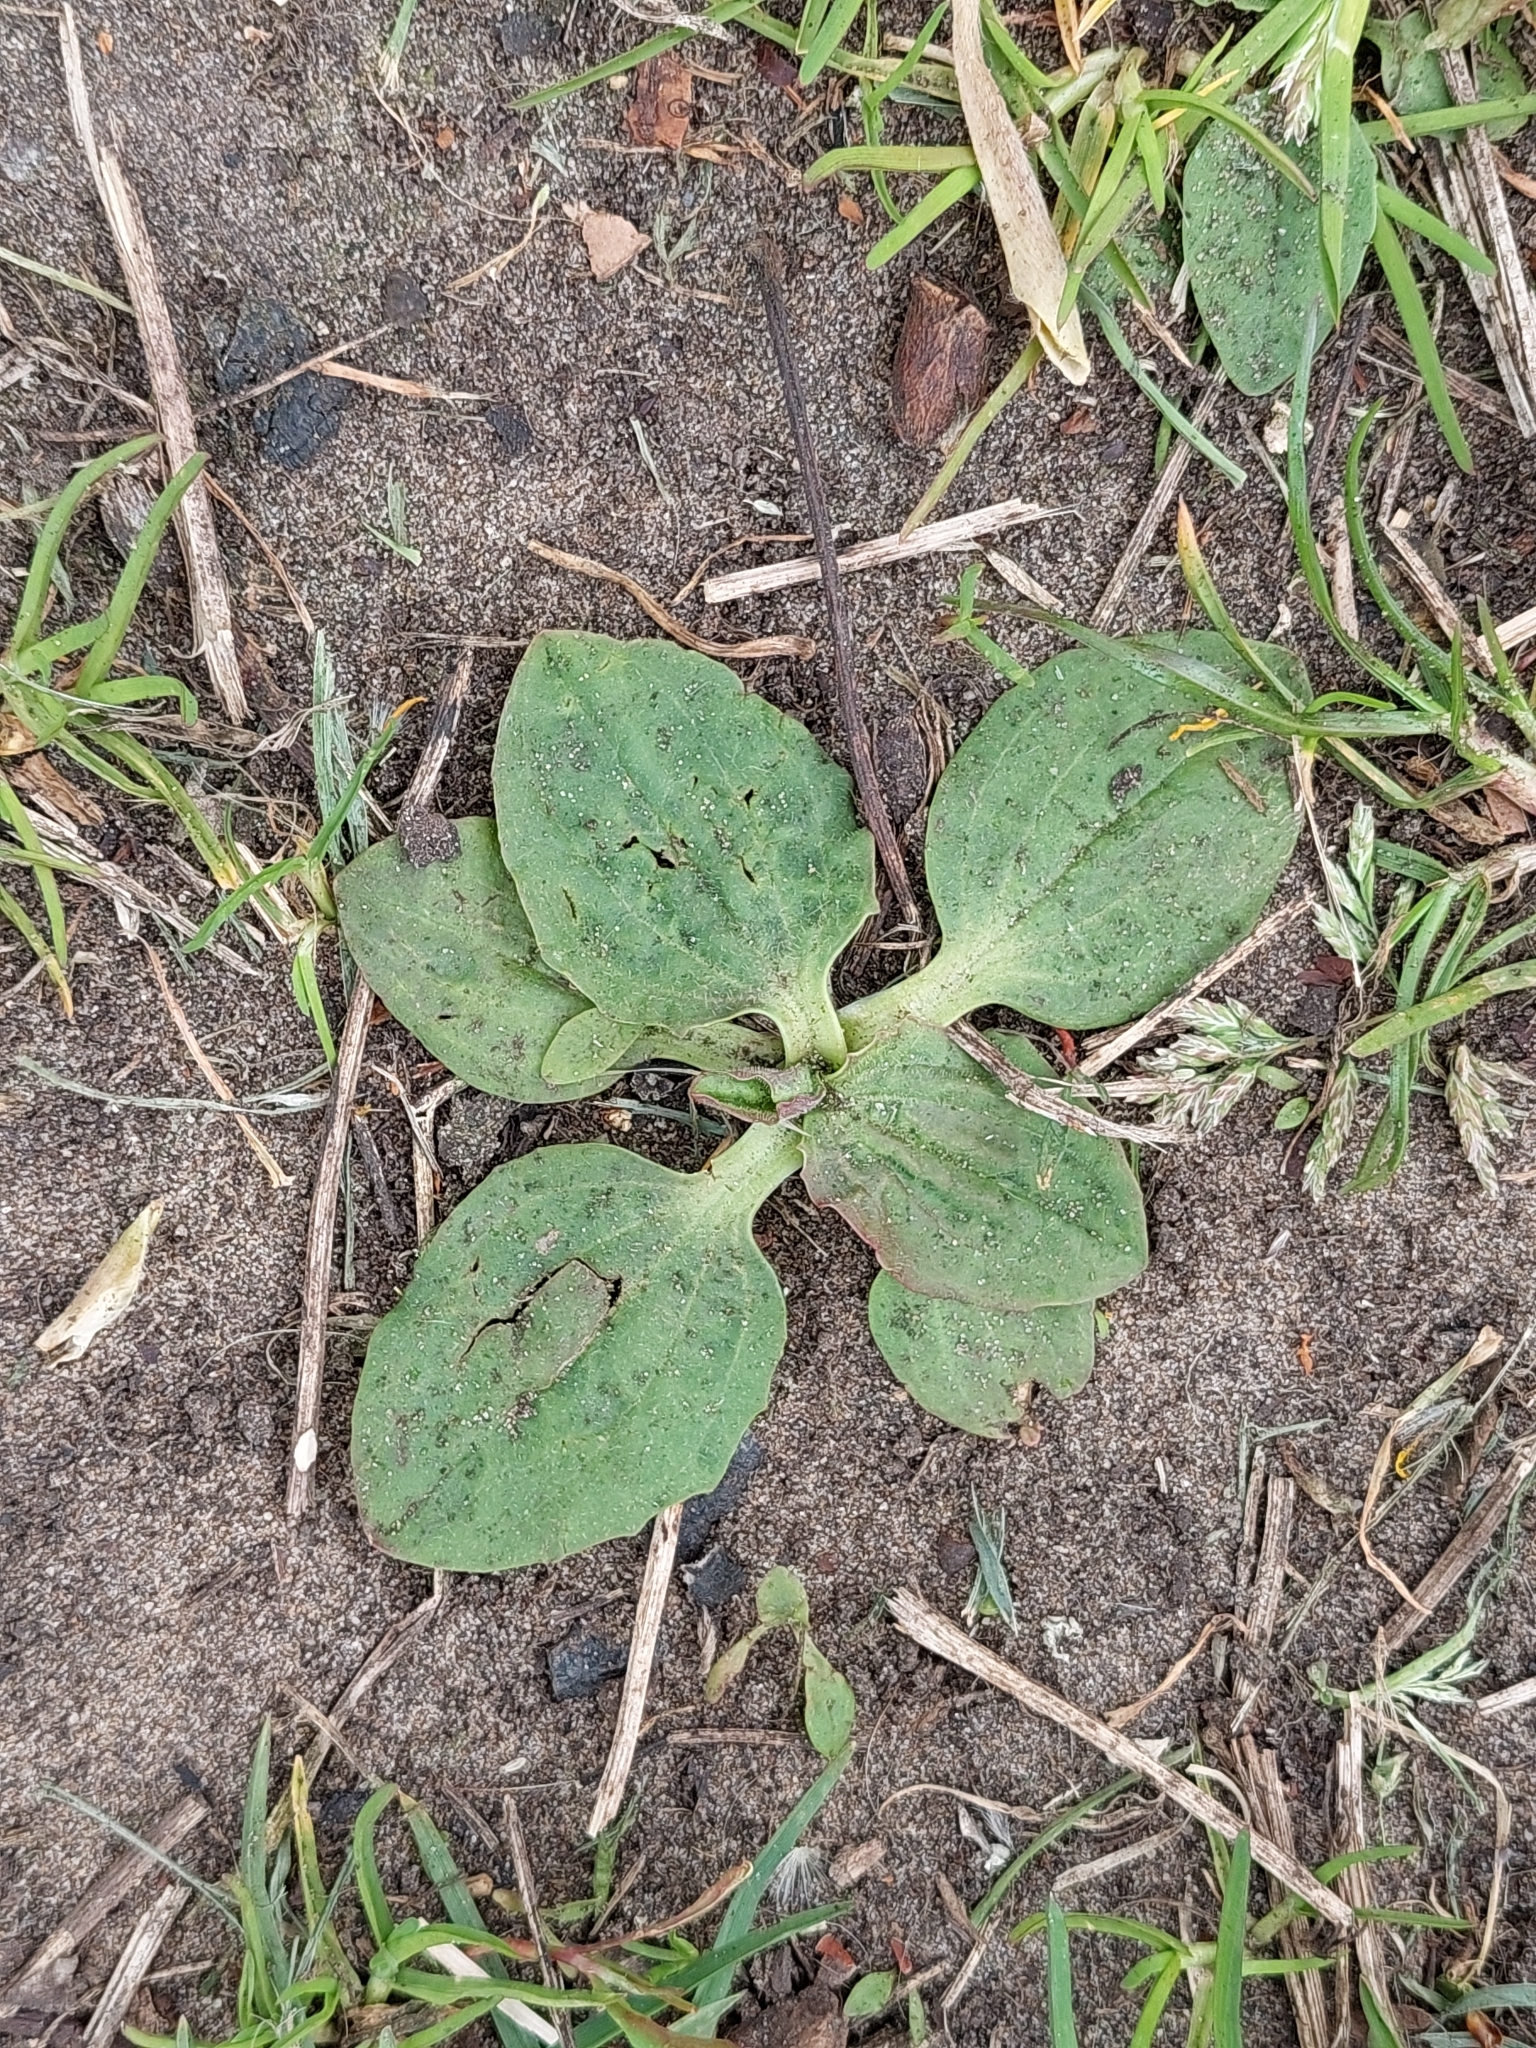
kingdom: Plantae
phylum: Tracheophyta
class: Magnoliopsida
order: Lamiales
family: Plantaginaceae
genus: Plantago
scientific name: Plantago major
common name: Common plantain
